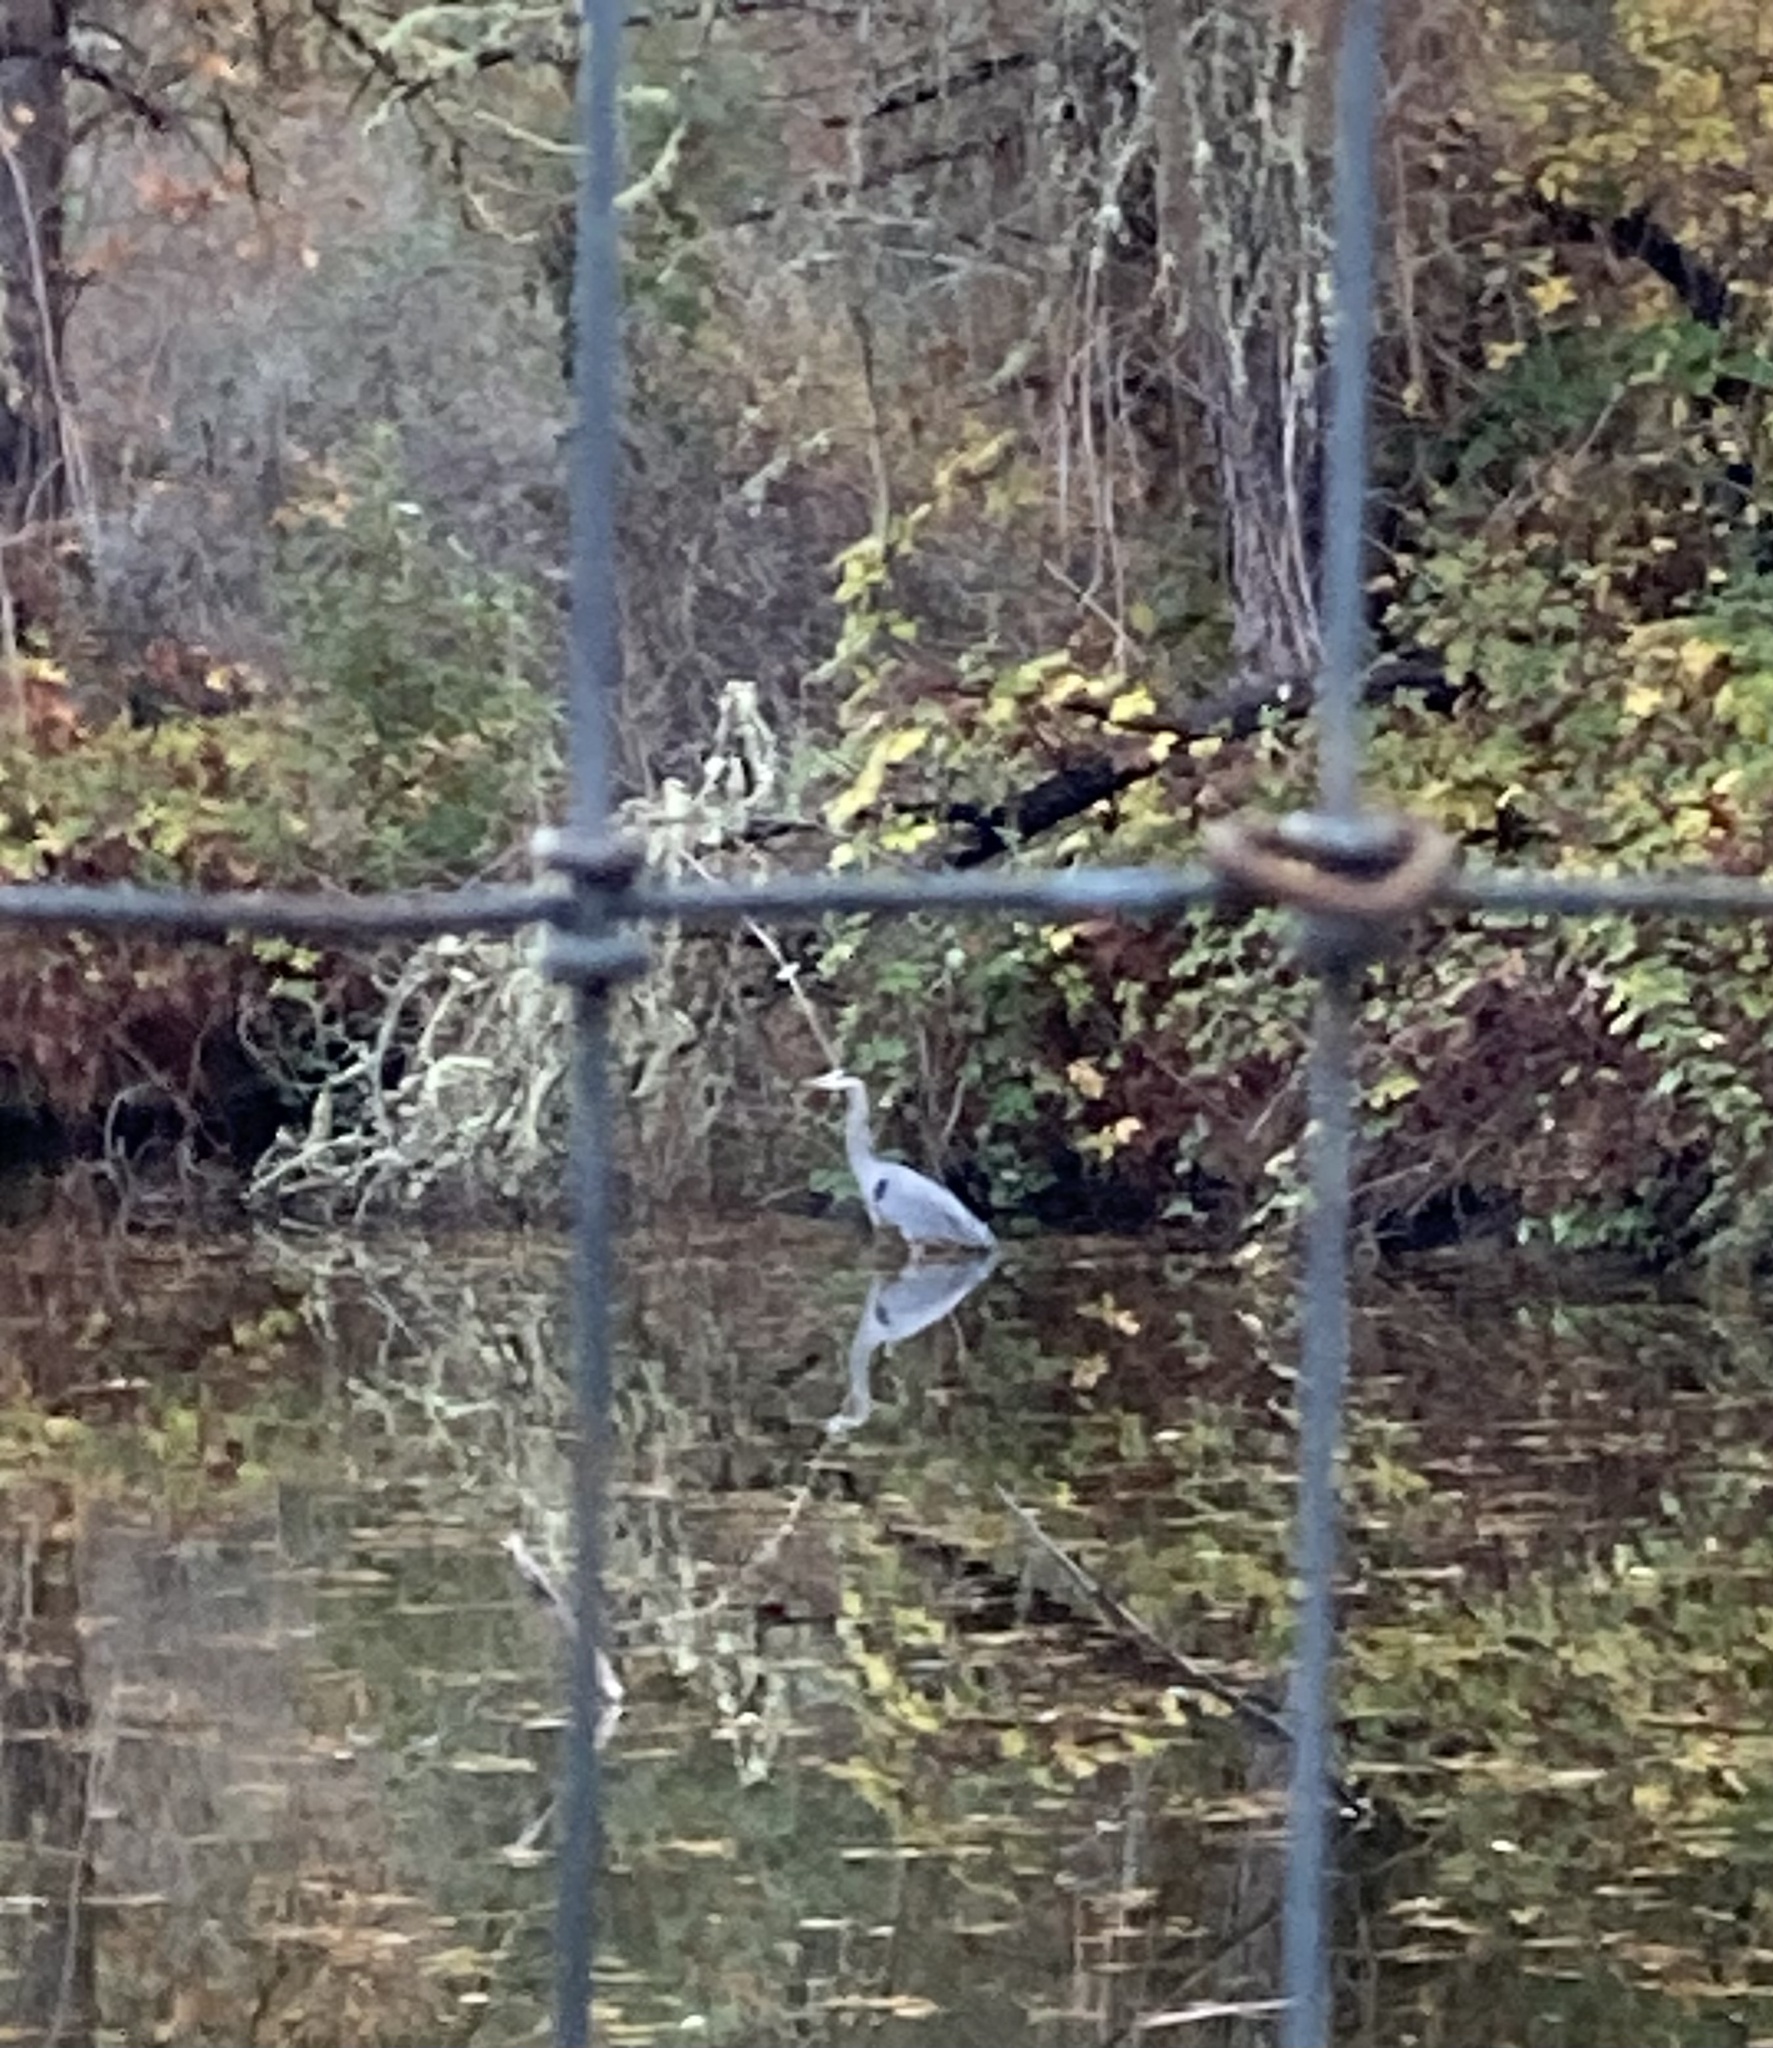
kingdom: Animalia
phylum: Chordata
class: Aves
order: Pelecaniformes
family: Ardeidae
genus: Ardea
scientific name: Ardea herodias
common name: Great blue heron
